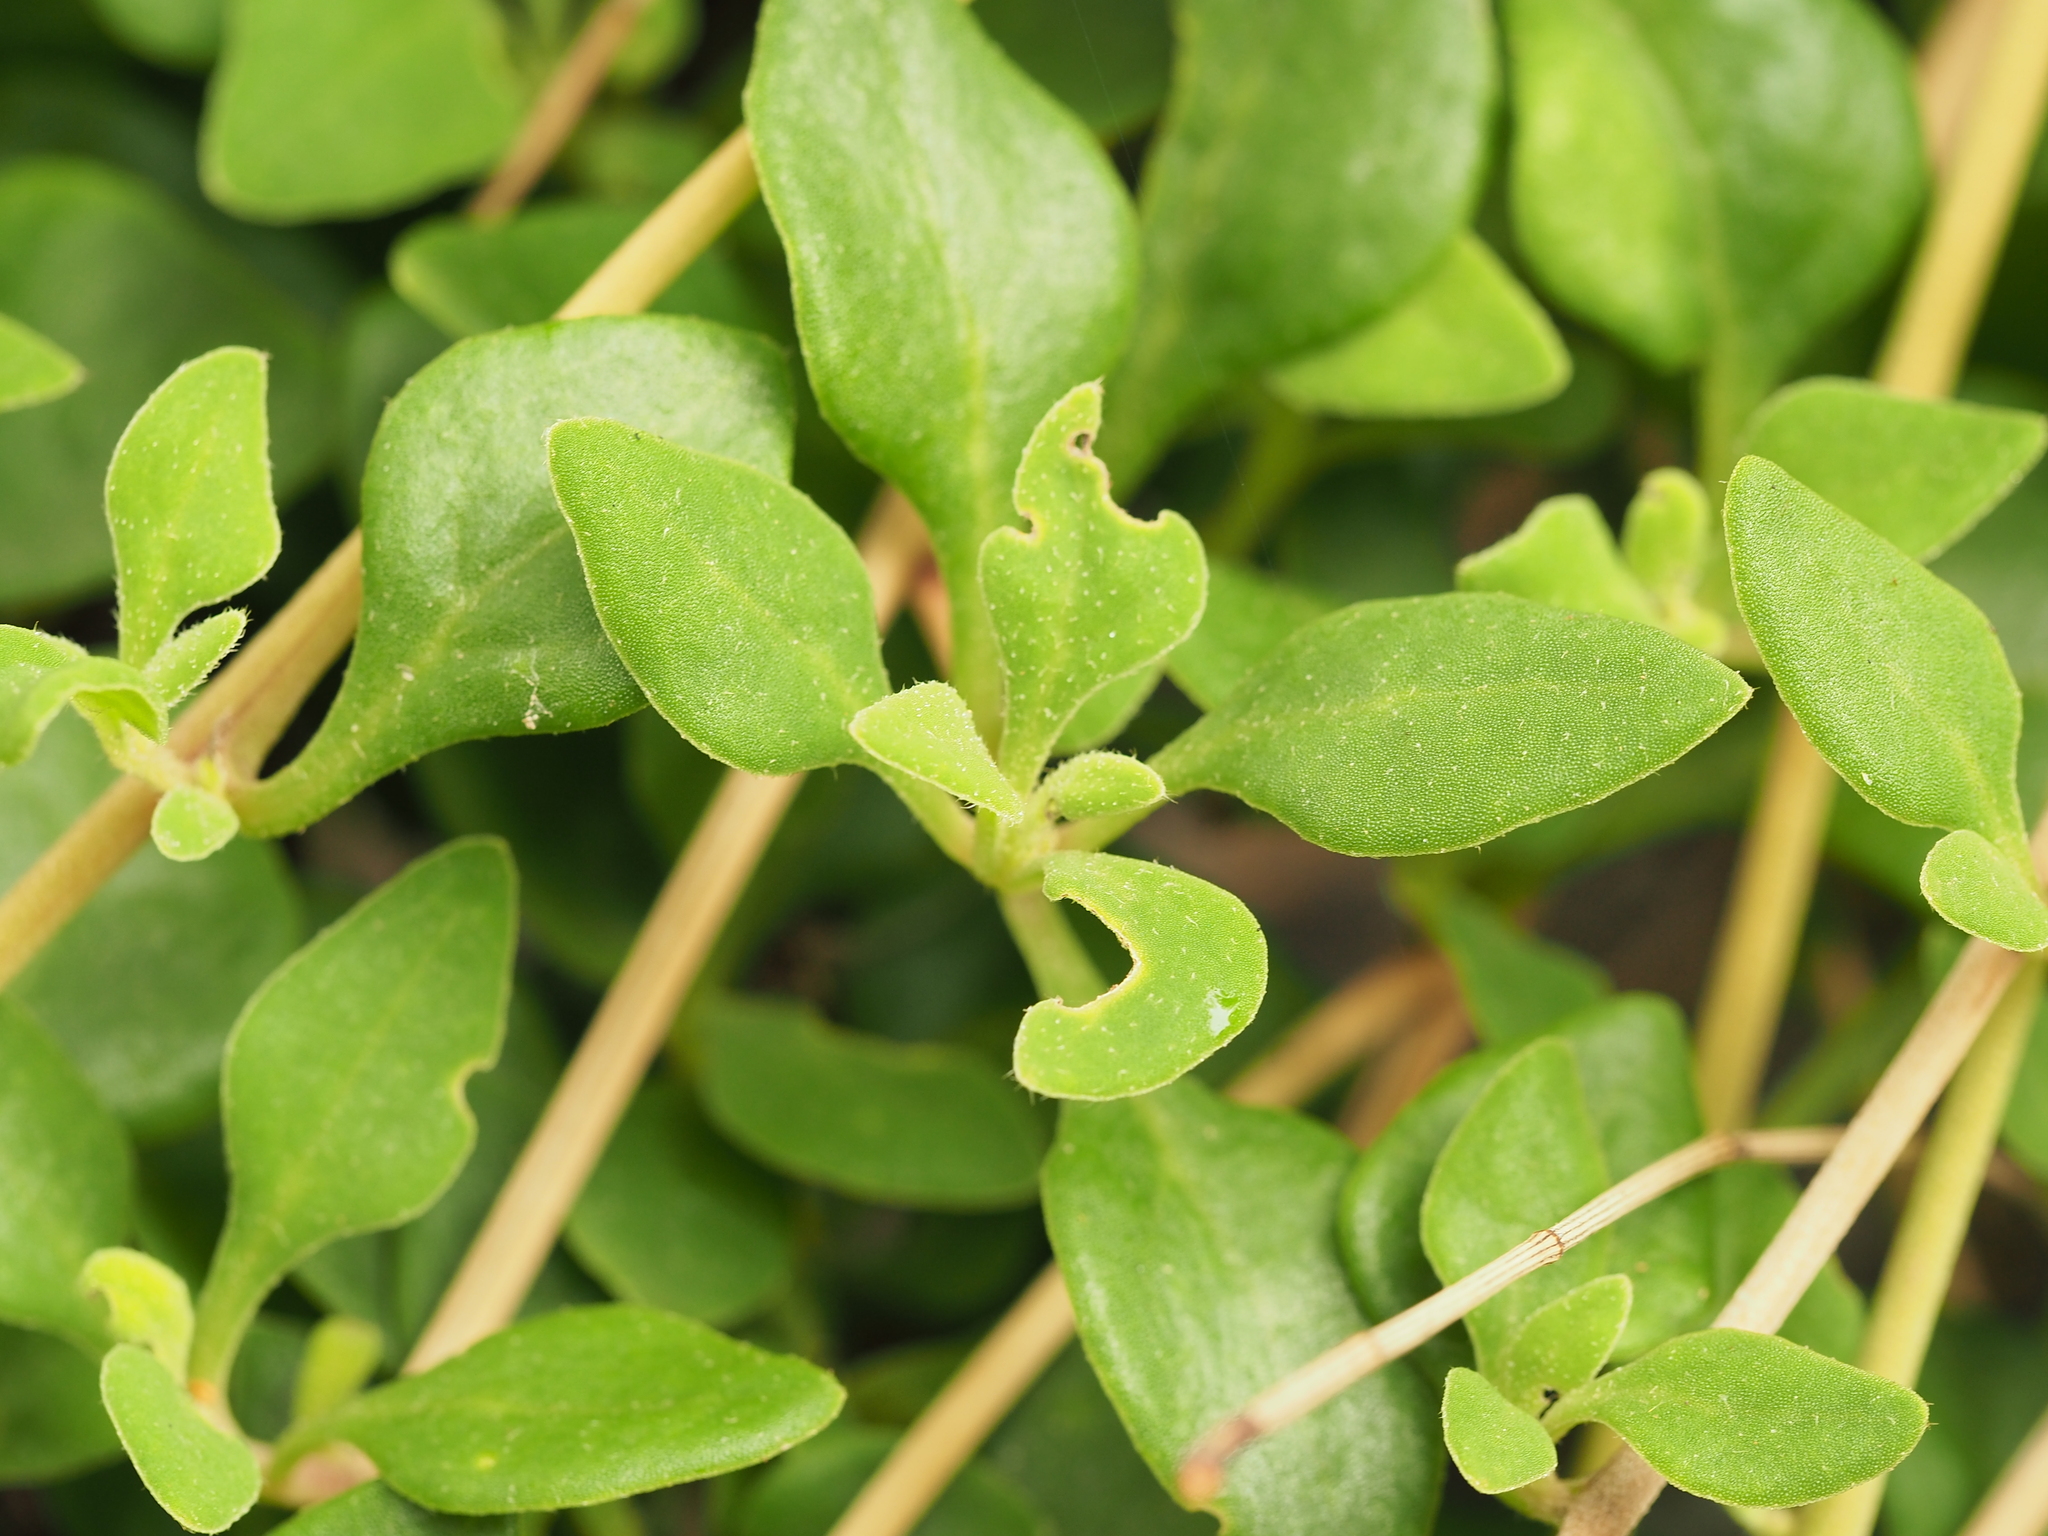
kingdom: Plantae
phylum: Tracheophyta
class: Magnoliopsida
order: Caryophyllales
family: Aizoaceae
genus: Tetragonia
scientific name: Tetragonia implexicoma
